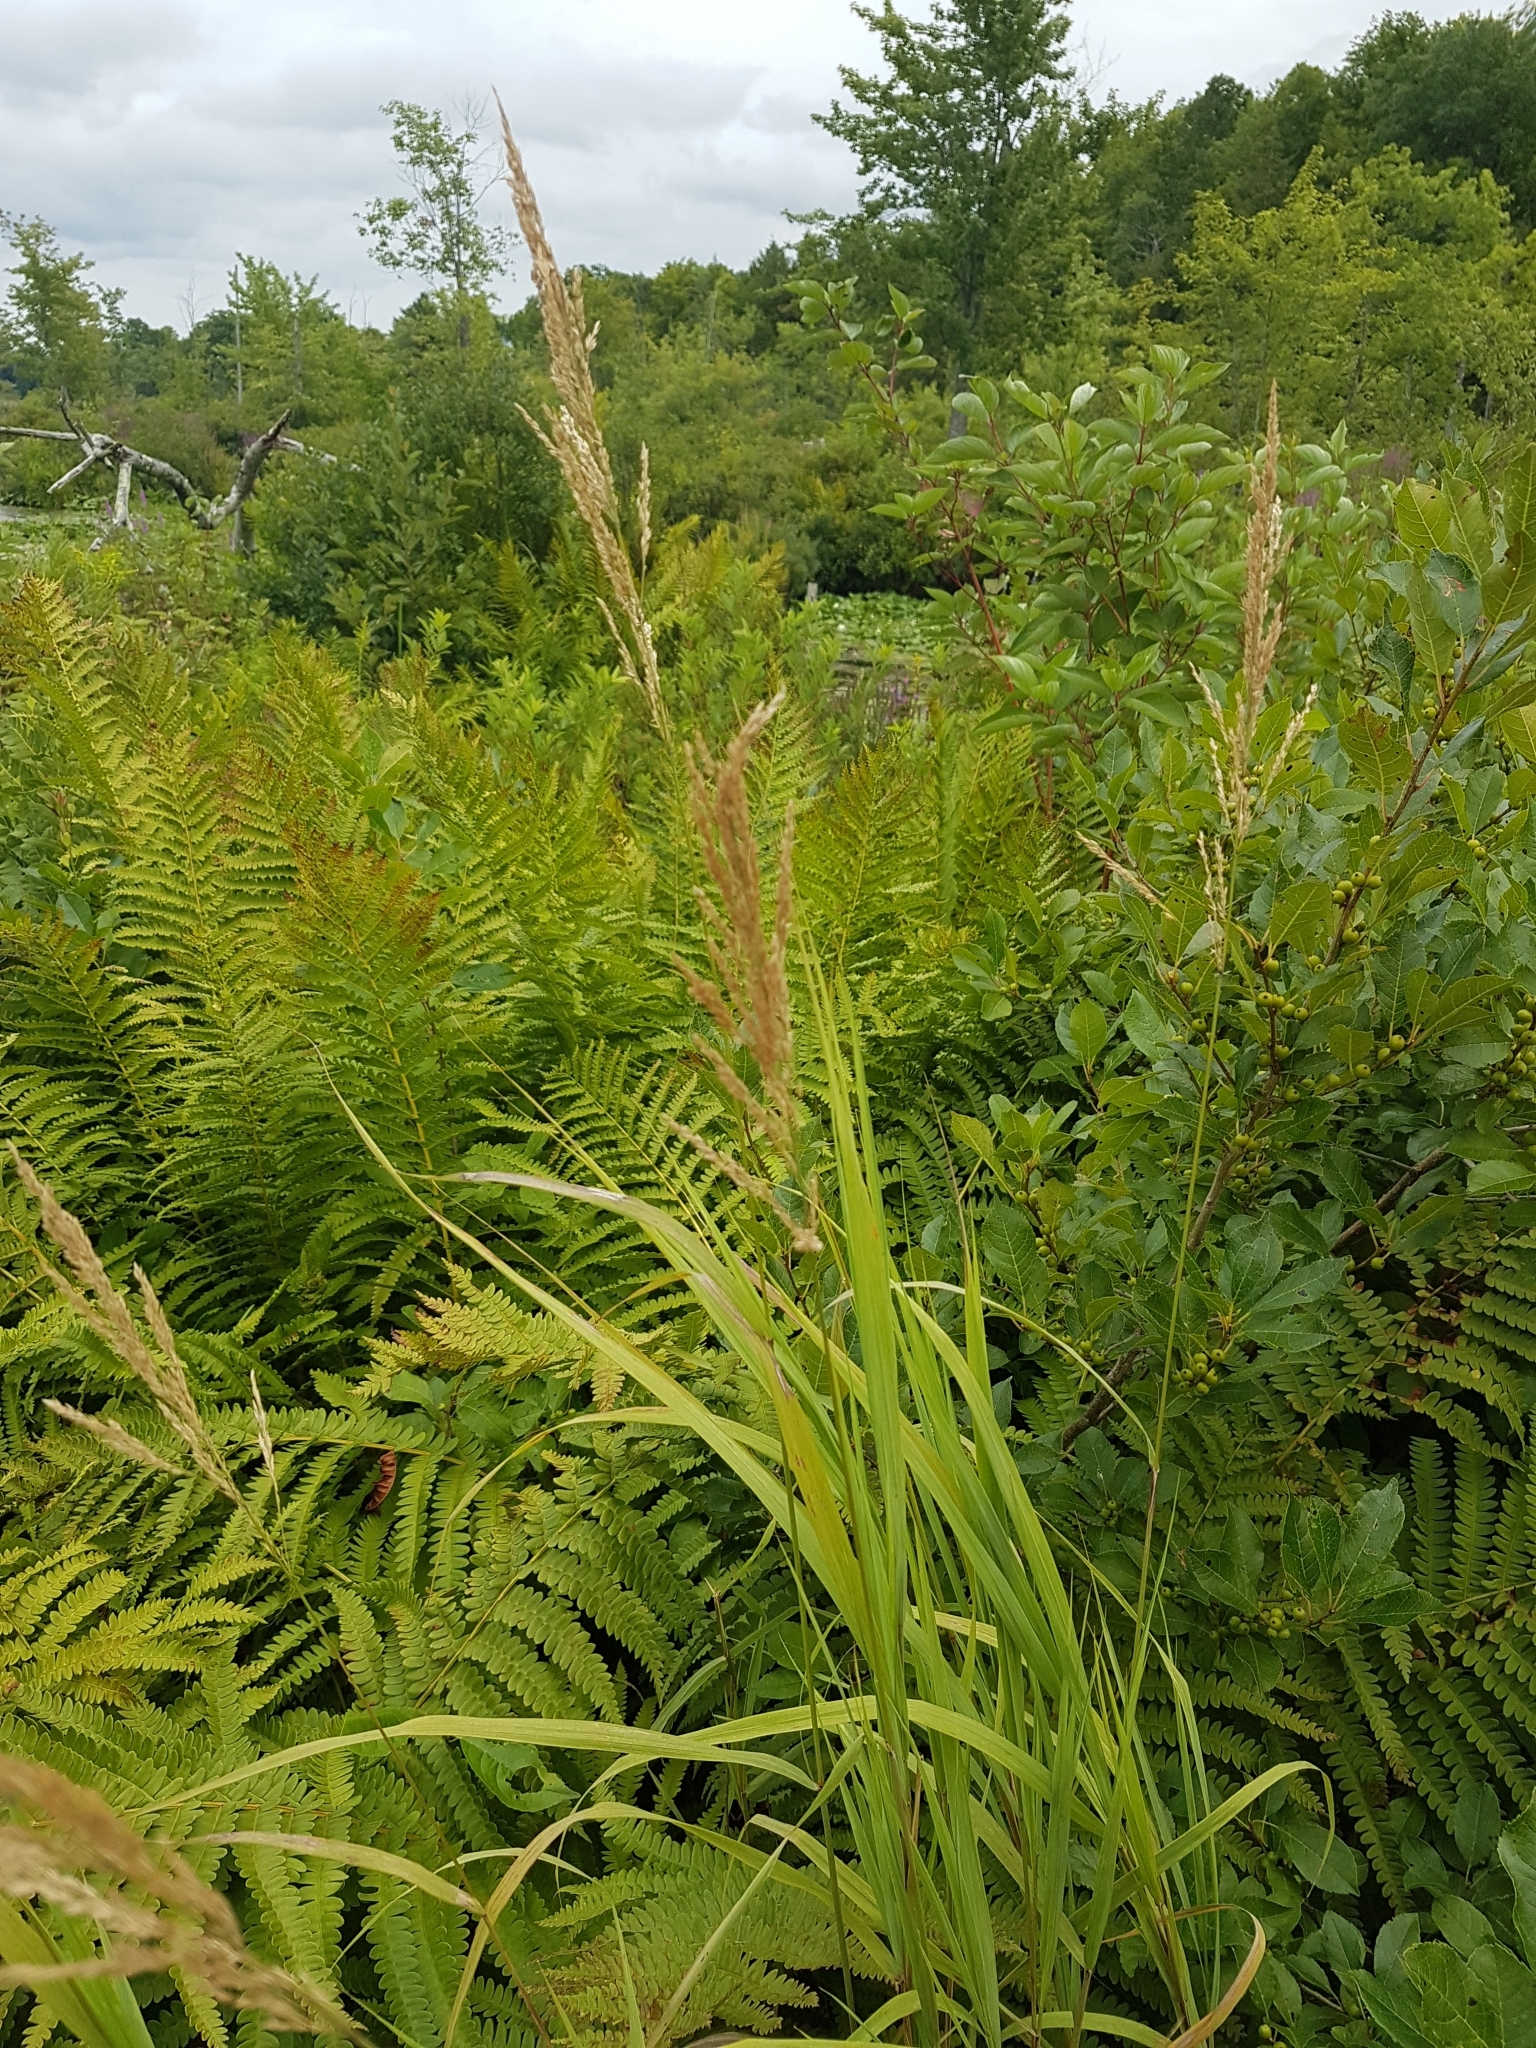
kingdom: Plantae
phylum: Tracheophyta
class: Liliopsida
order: Poales
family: Poaceae
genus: Calamagrostis
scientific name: Calamagrostis canadensis
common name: Canada bluejoint
